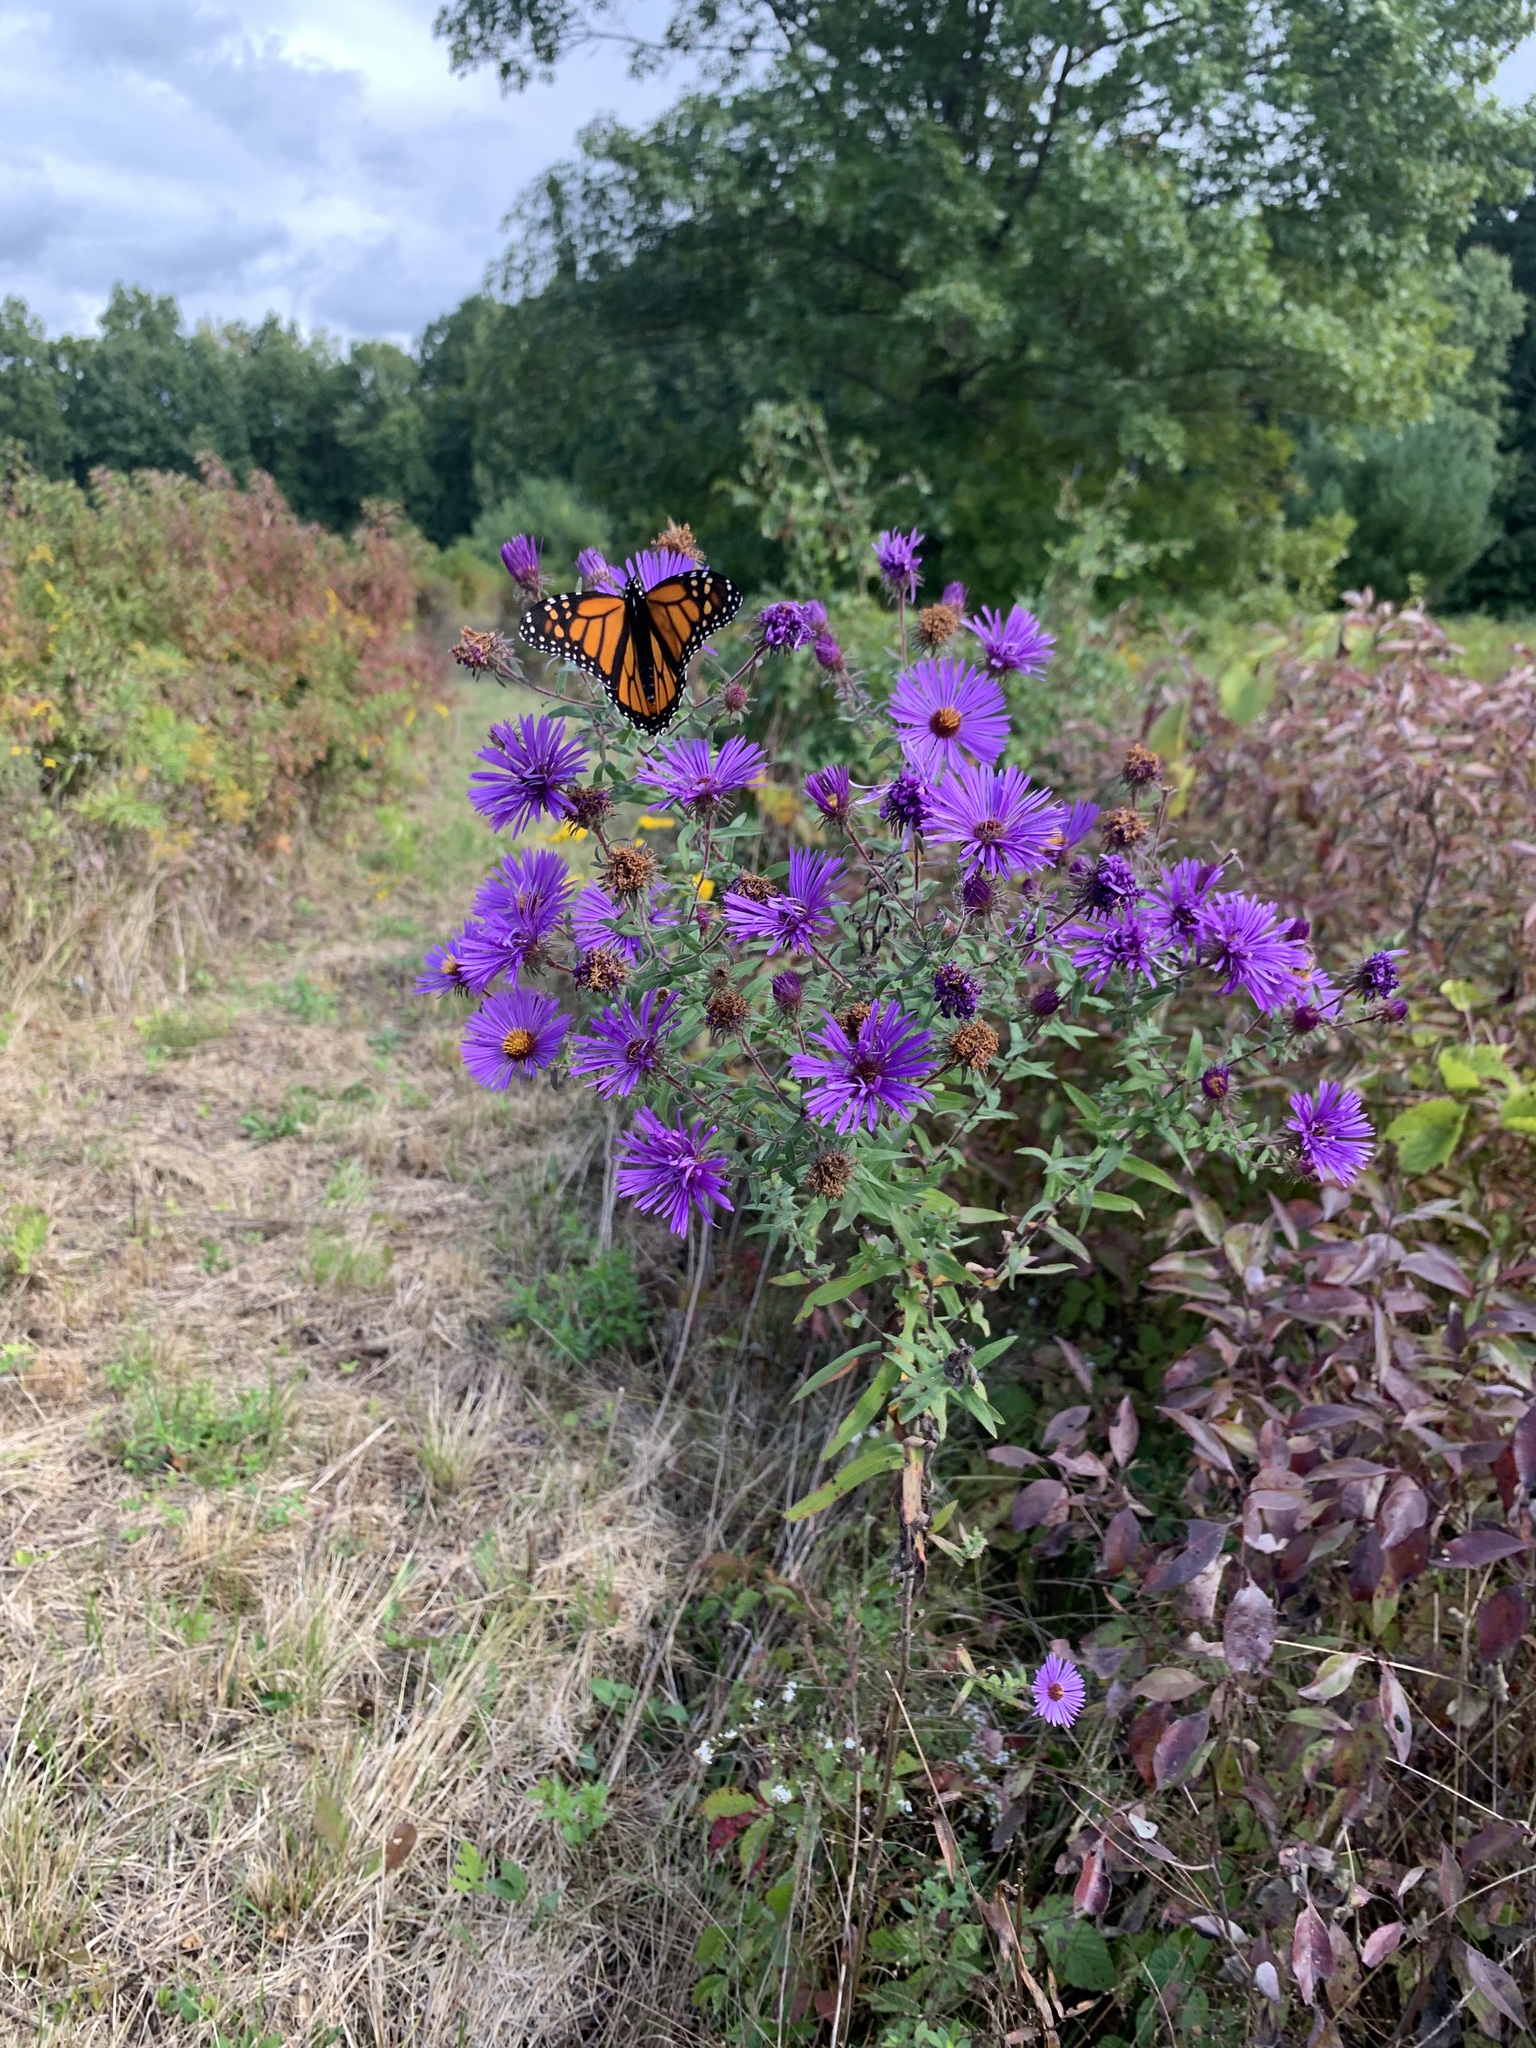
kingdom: Animalia
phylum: Arthropoda
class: Insecta
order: Lepidoptera
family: Nymphalidae
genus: Danaus
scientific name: Danaus plexippus
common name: Monarch
